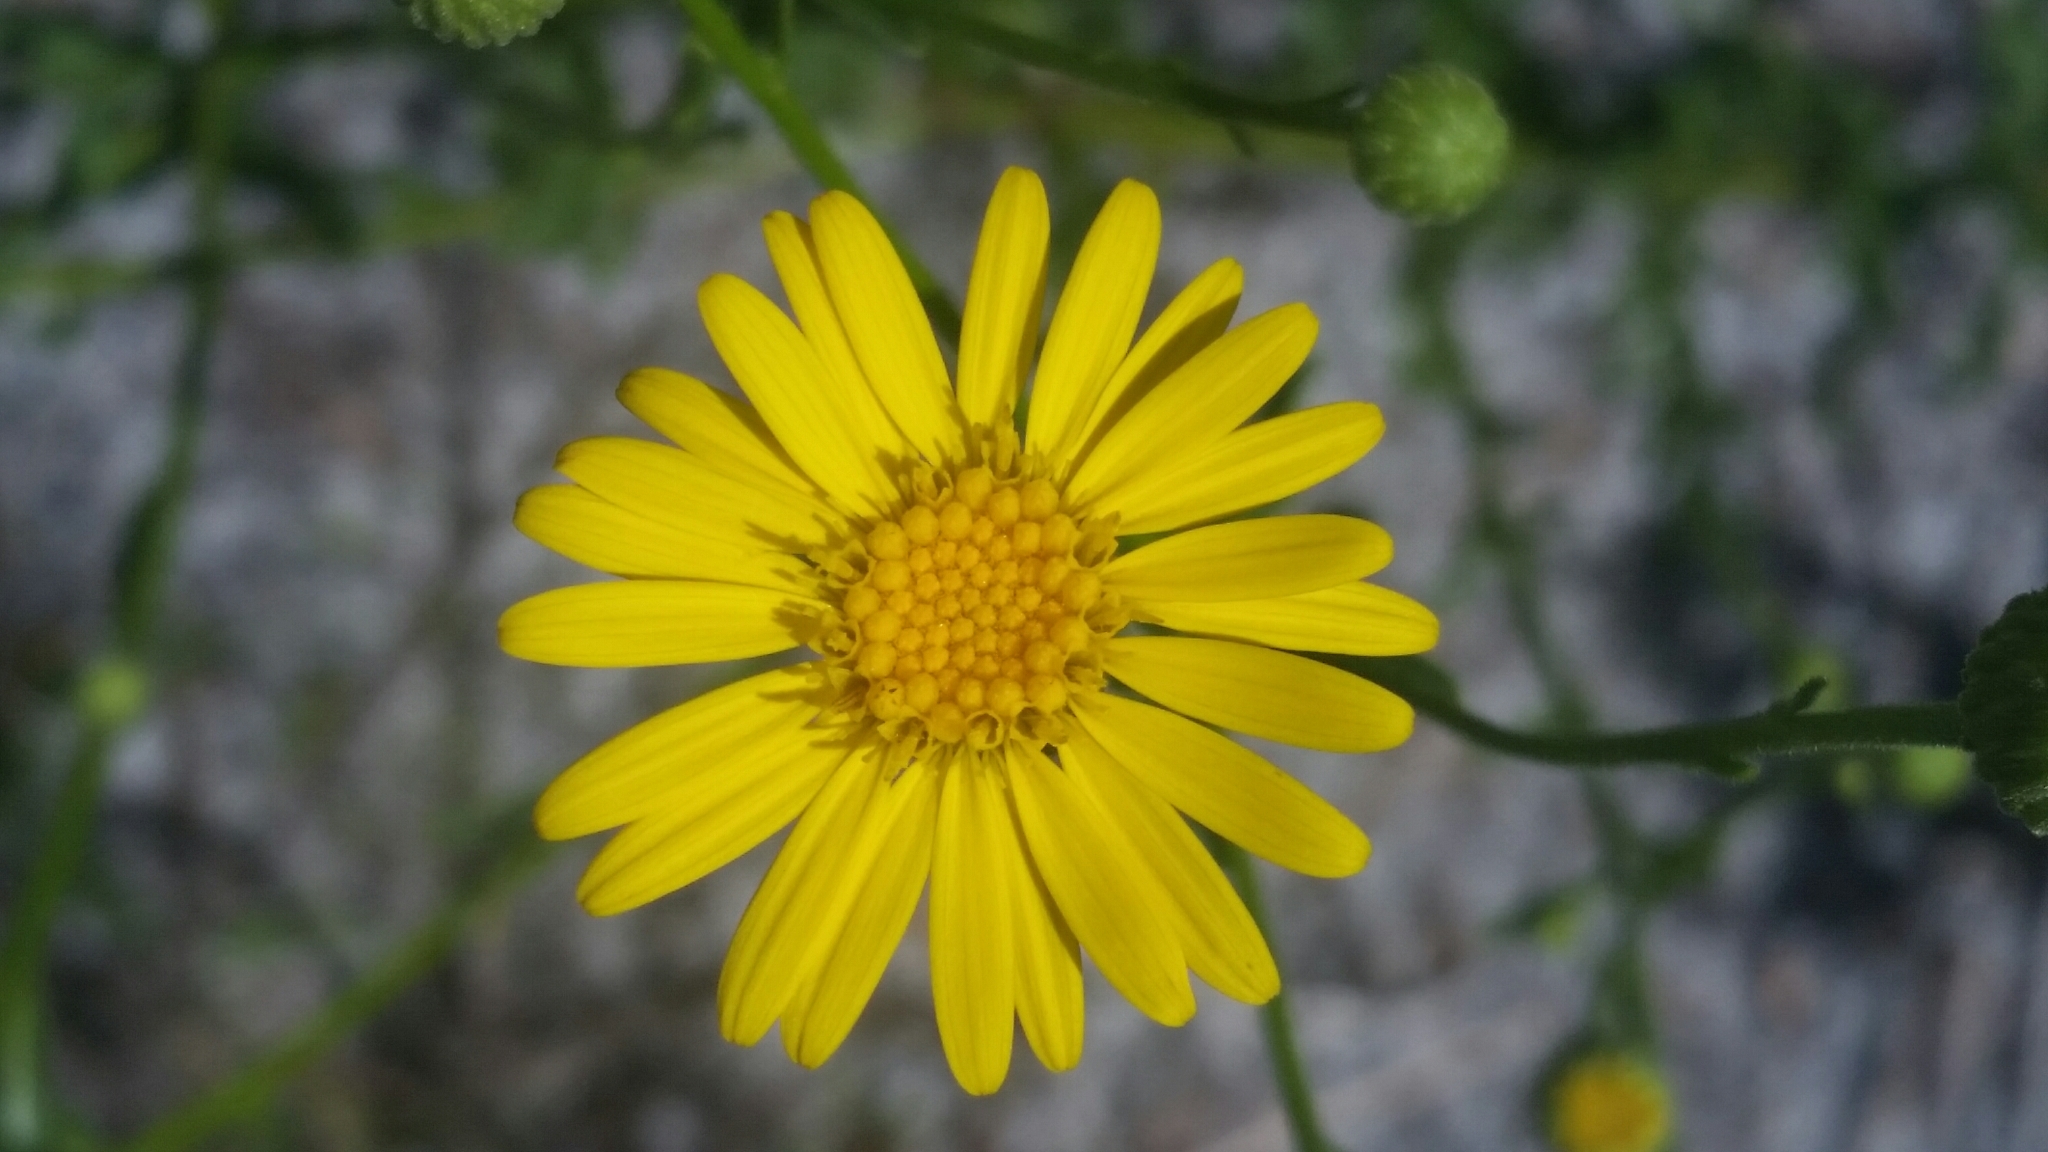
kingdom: Plantae
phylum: Tracheophyta
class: Magnoliopsida
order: Asterales
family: Asteraceae
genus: Chrysopsis
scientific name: Chrysopsis scabrella
